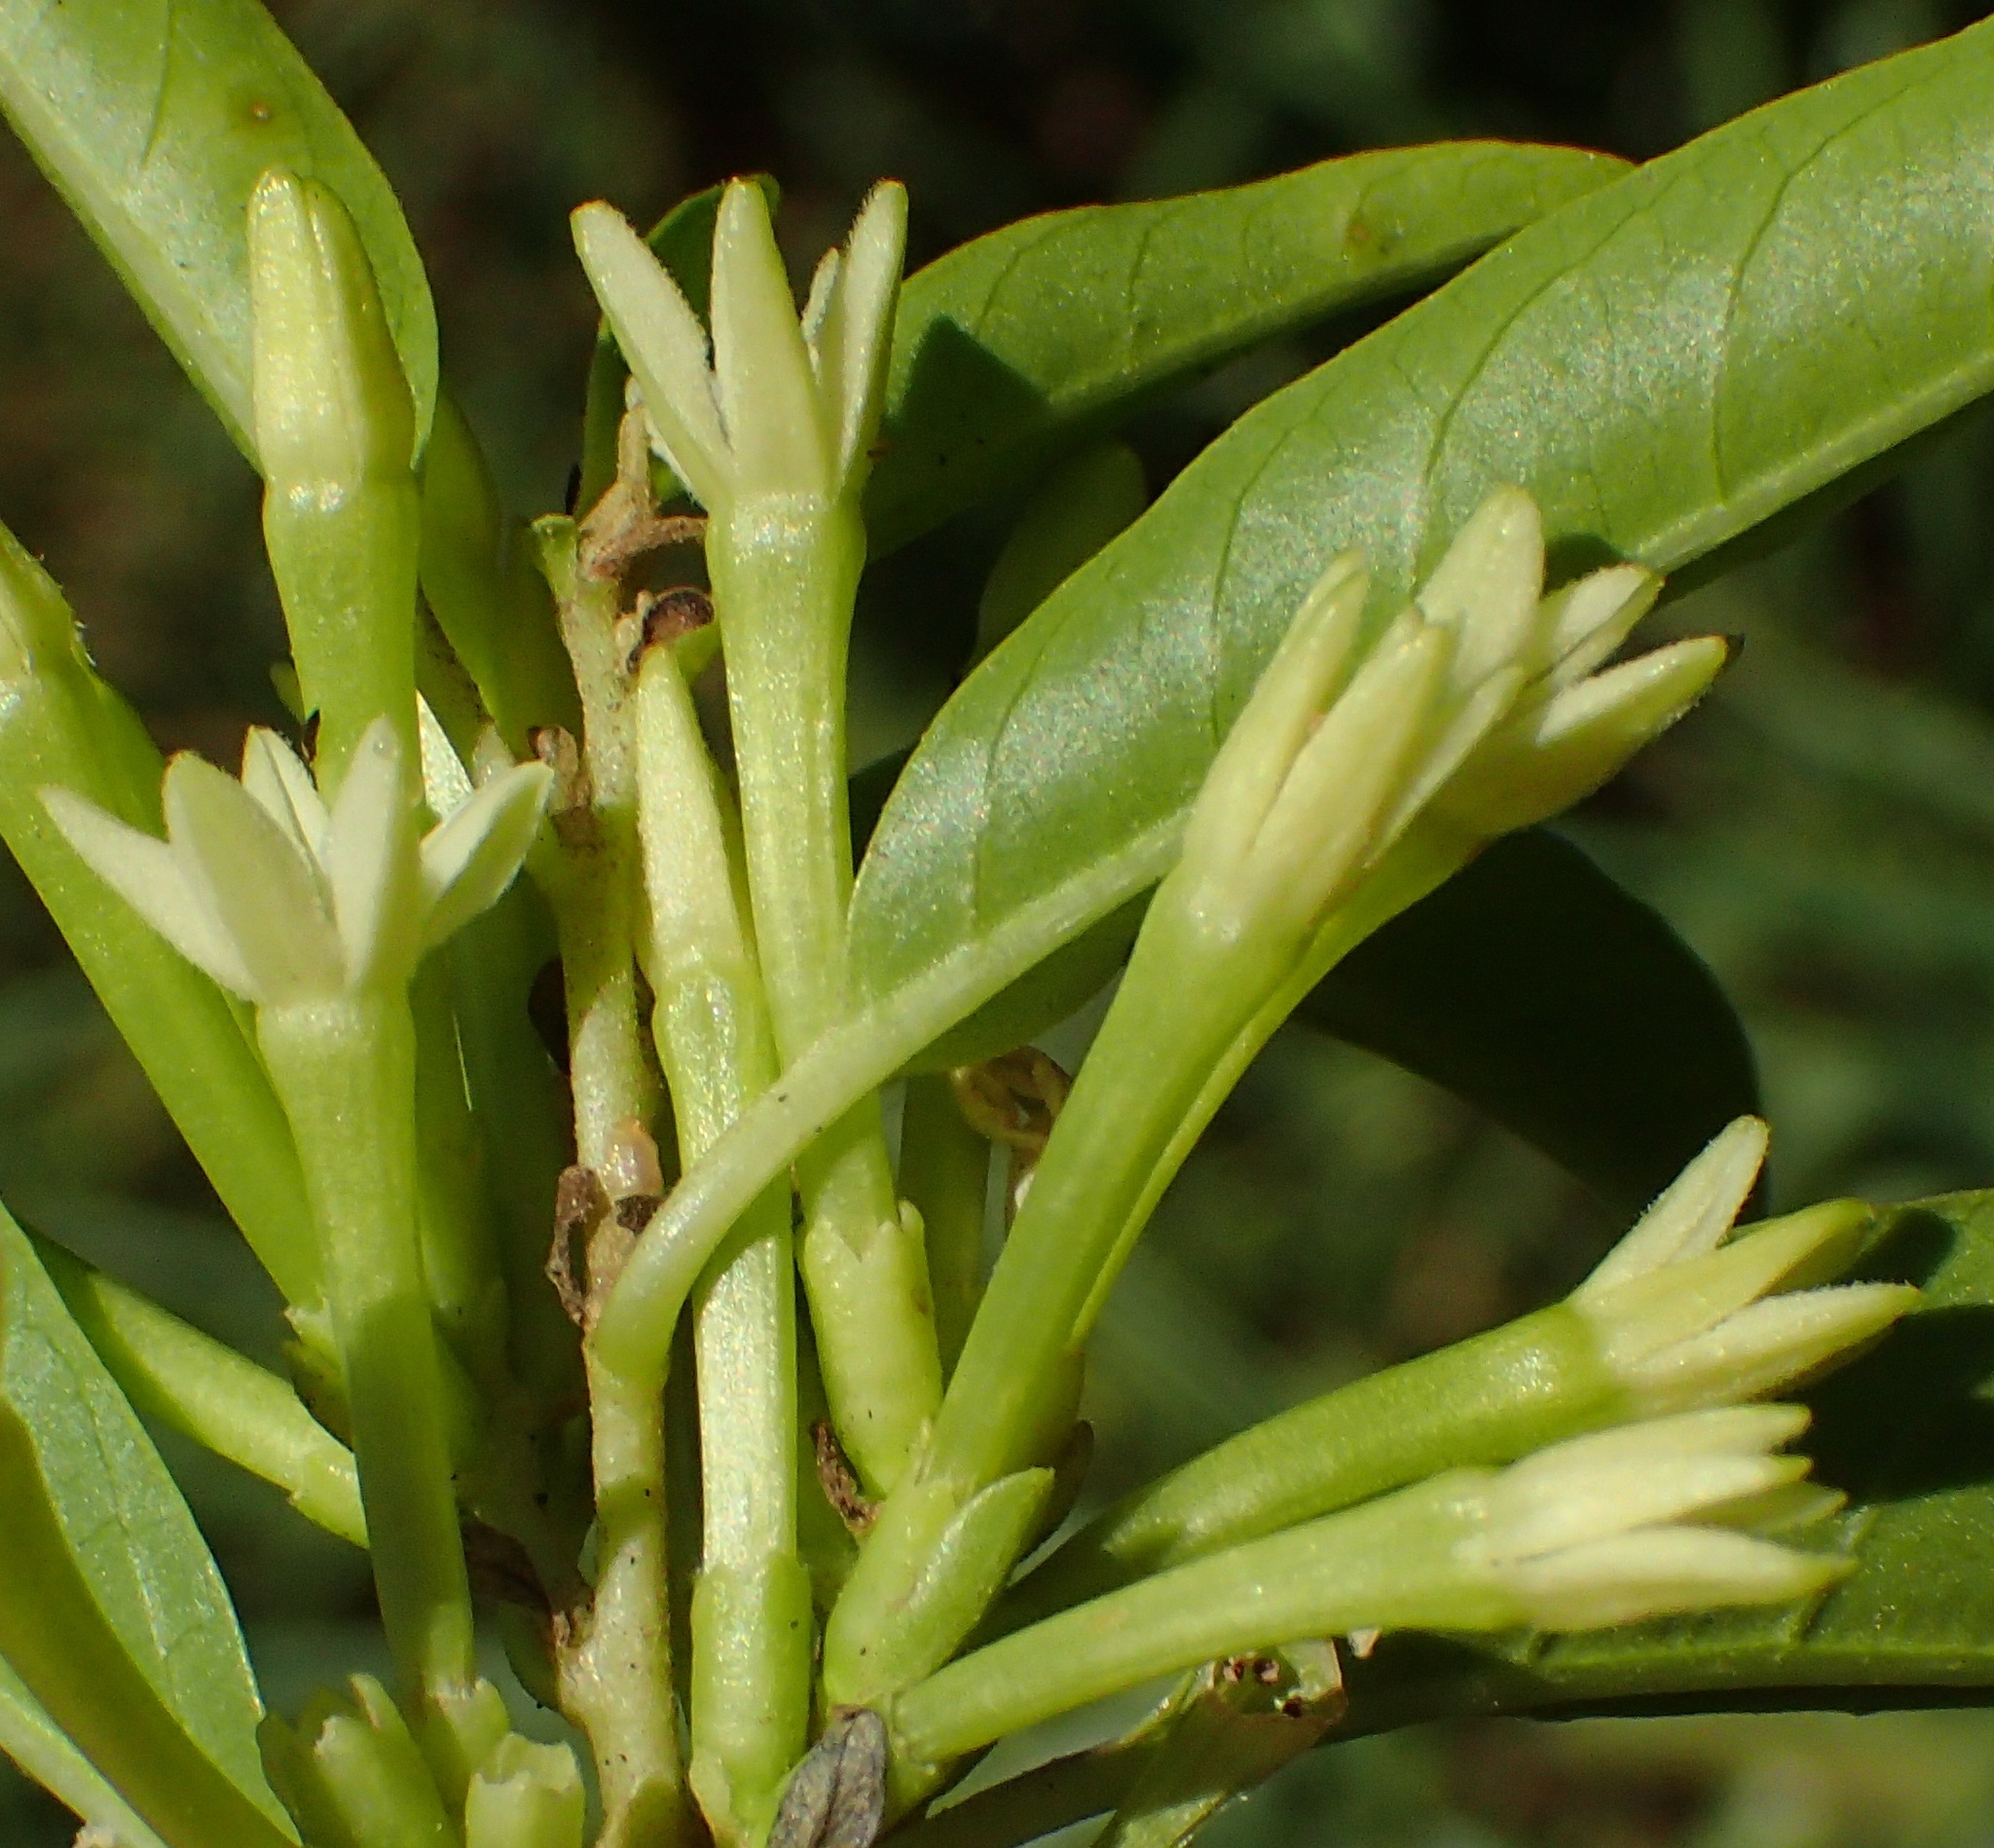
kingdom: Plantae
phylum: Tracheophyta
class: Magnoliopsida
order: Solanales
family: Solanaceae
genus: Cestrum
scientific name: Cestrum laevigatum
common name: Inkberry
